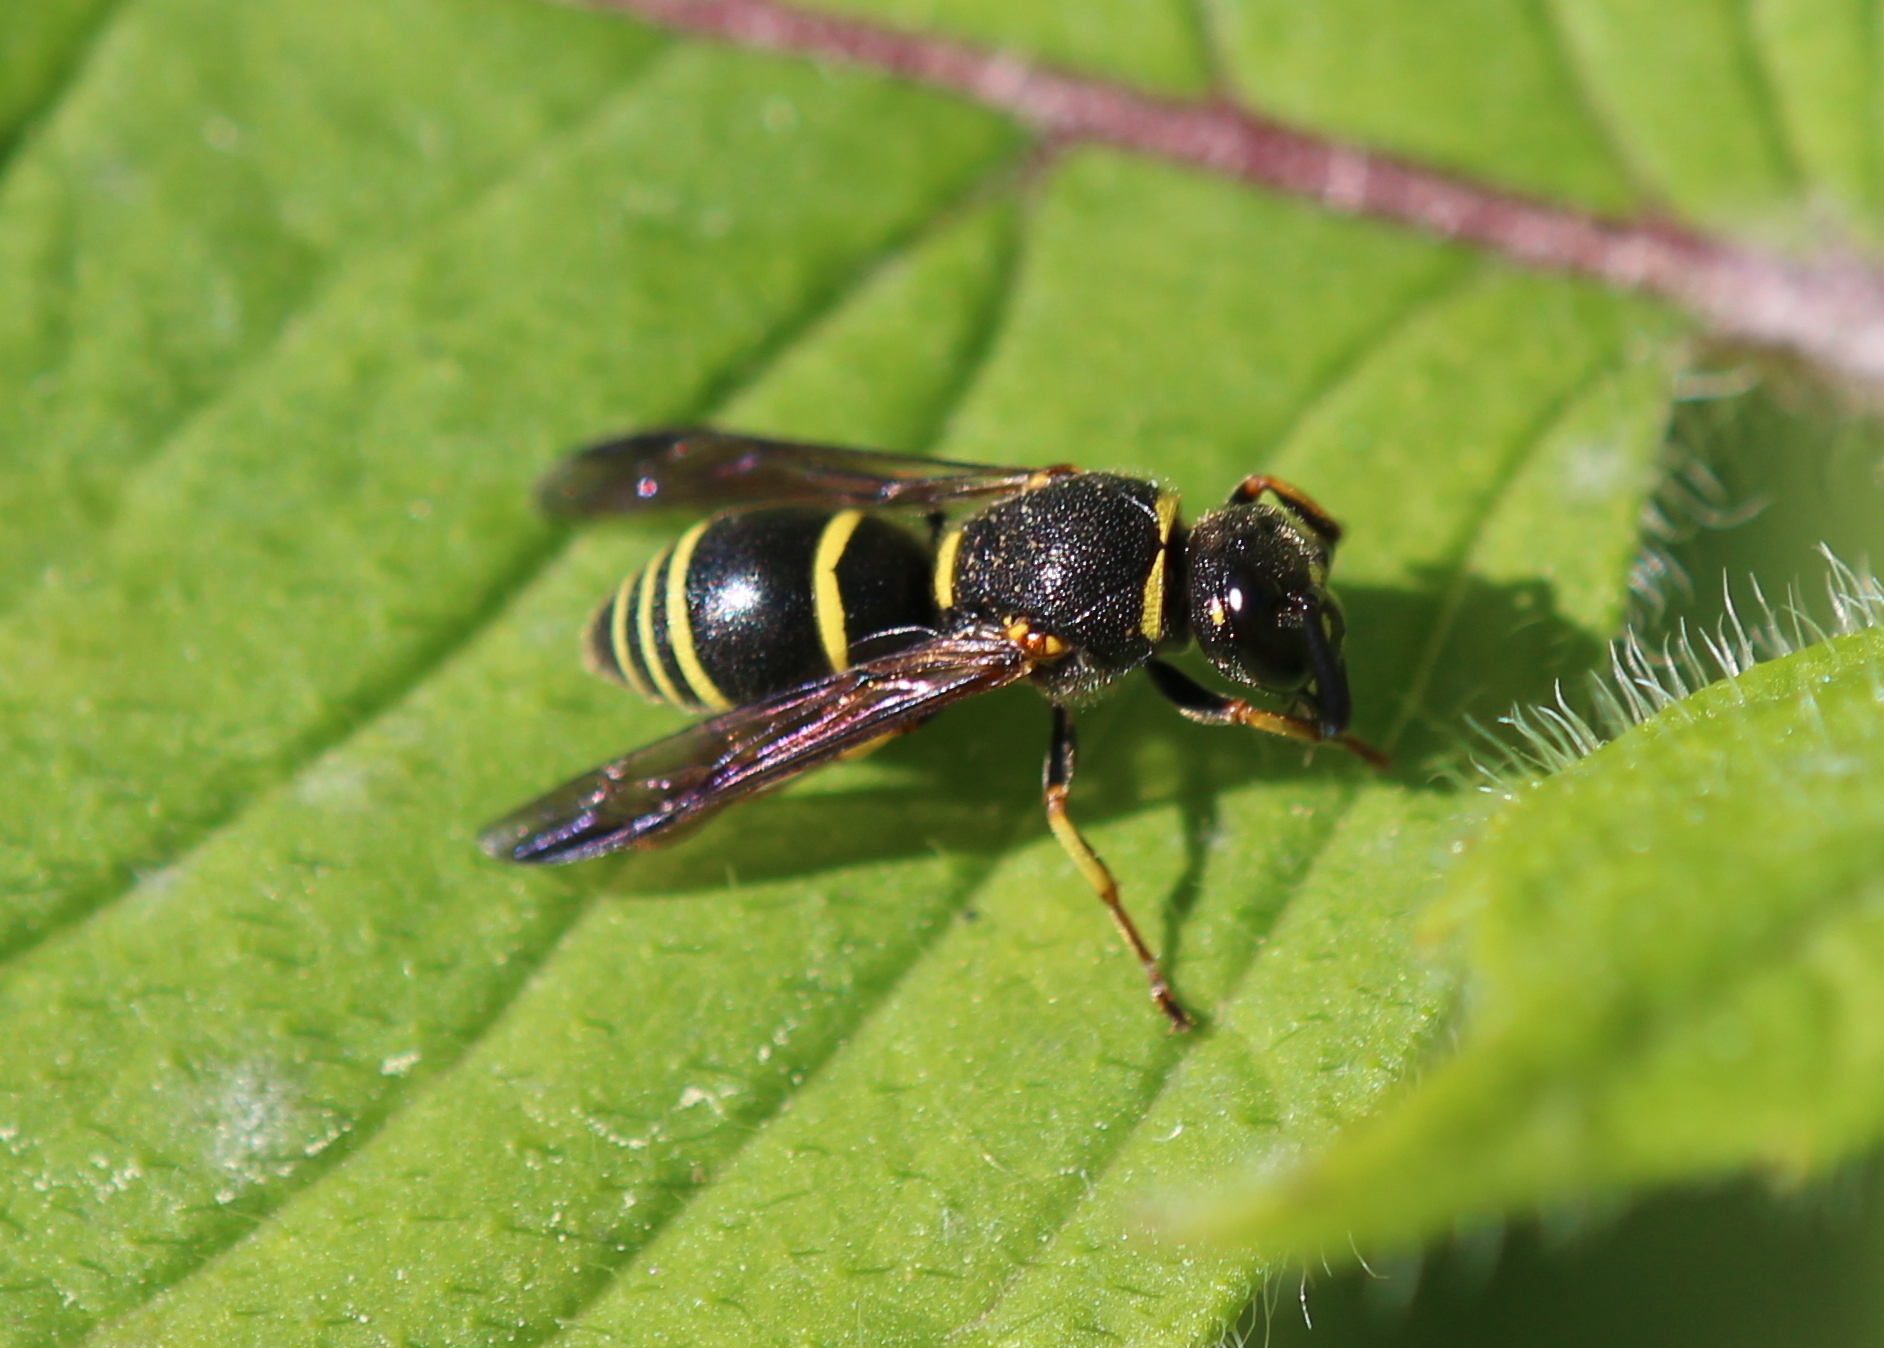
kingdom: Animalia
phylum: Arthropoda
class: Insecta
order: Hymenoptera
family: Eumenidae
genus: Euodynerus
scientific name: Euodynerus foraminatus
